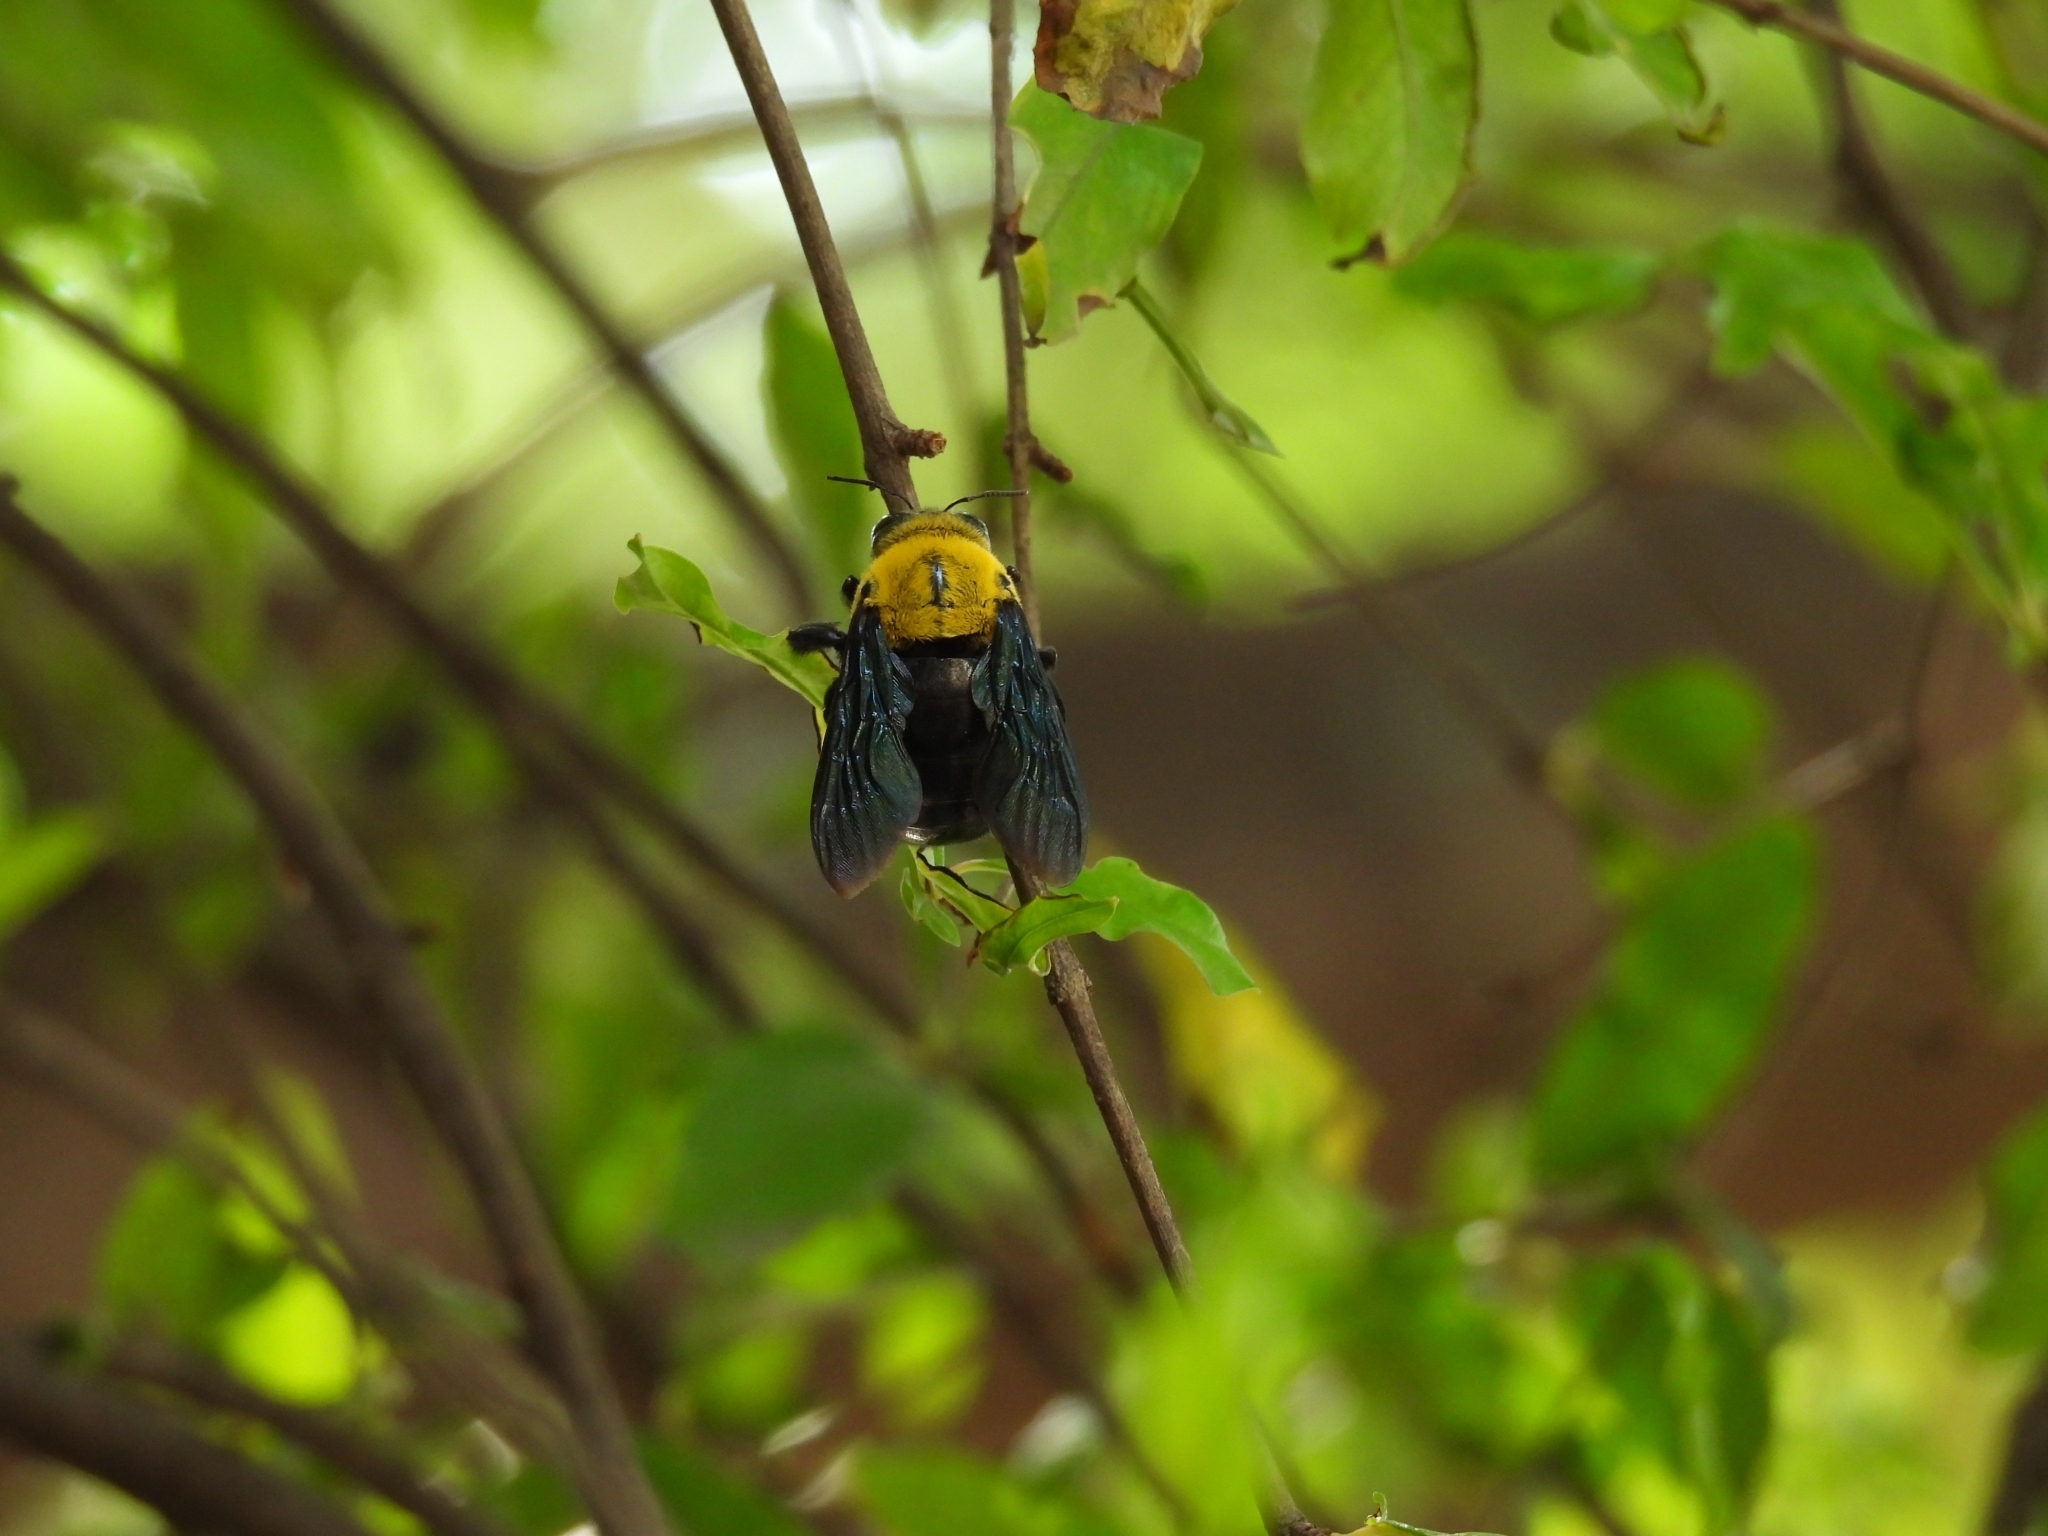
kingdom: Animalia
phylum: Arthropoda
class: Insecta
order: Hymenoptera
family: Apidae
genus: Xylocopa
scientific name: Xylocopa ruficornis
